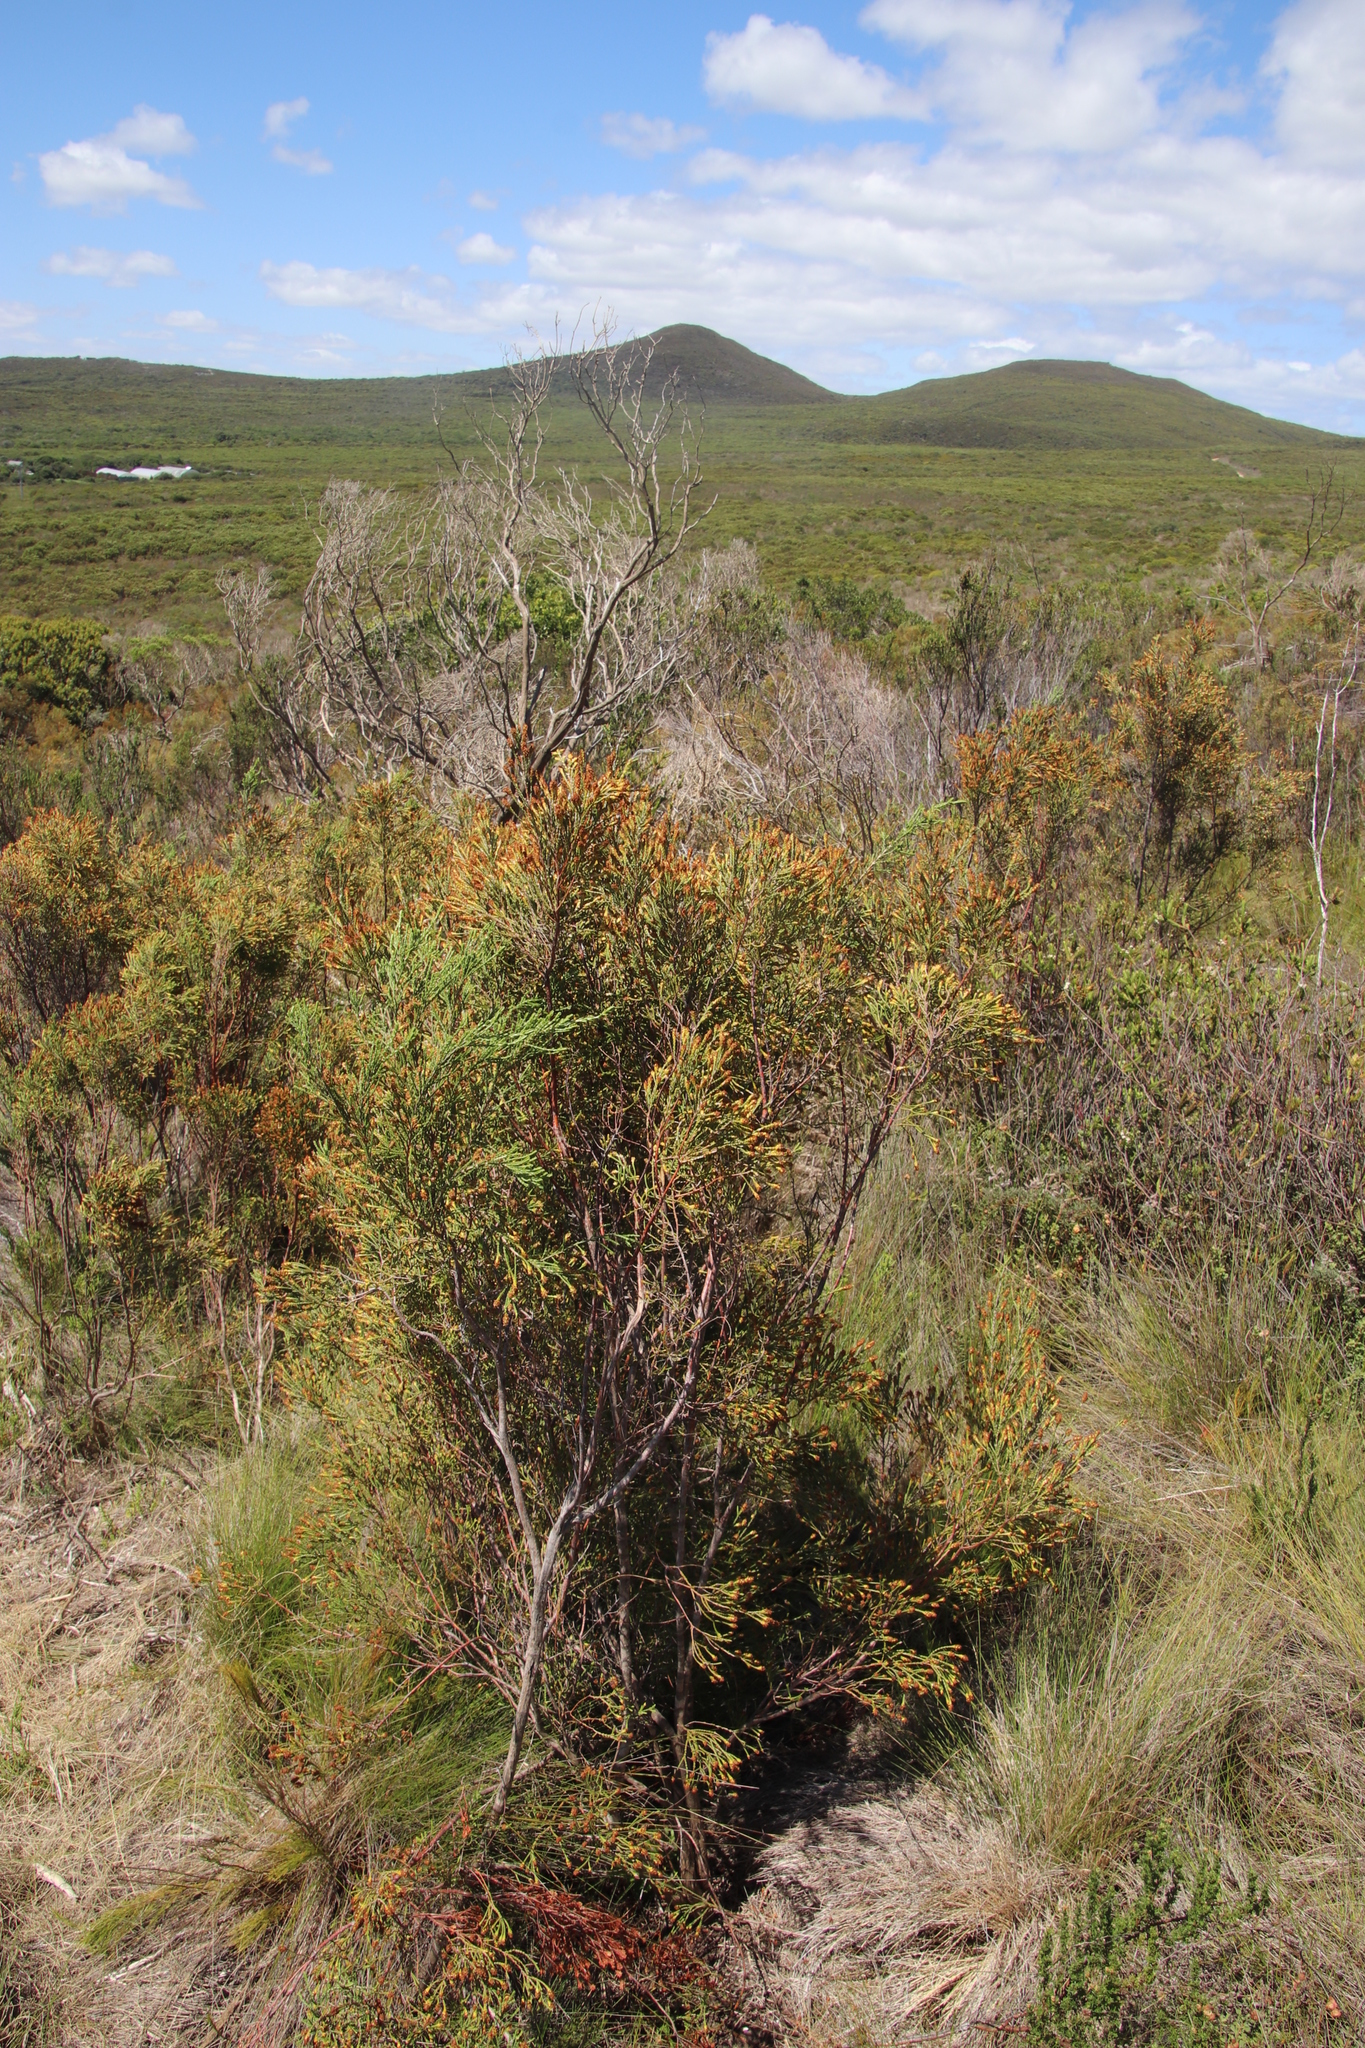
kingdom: Plantae
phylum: Tracheophyta
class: Magnoliopsida
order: Malvales
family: Thymelaeaceae
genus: Passerina
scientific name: Passerina corymbosa
